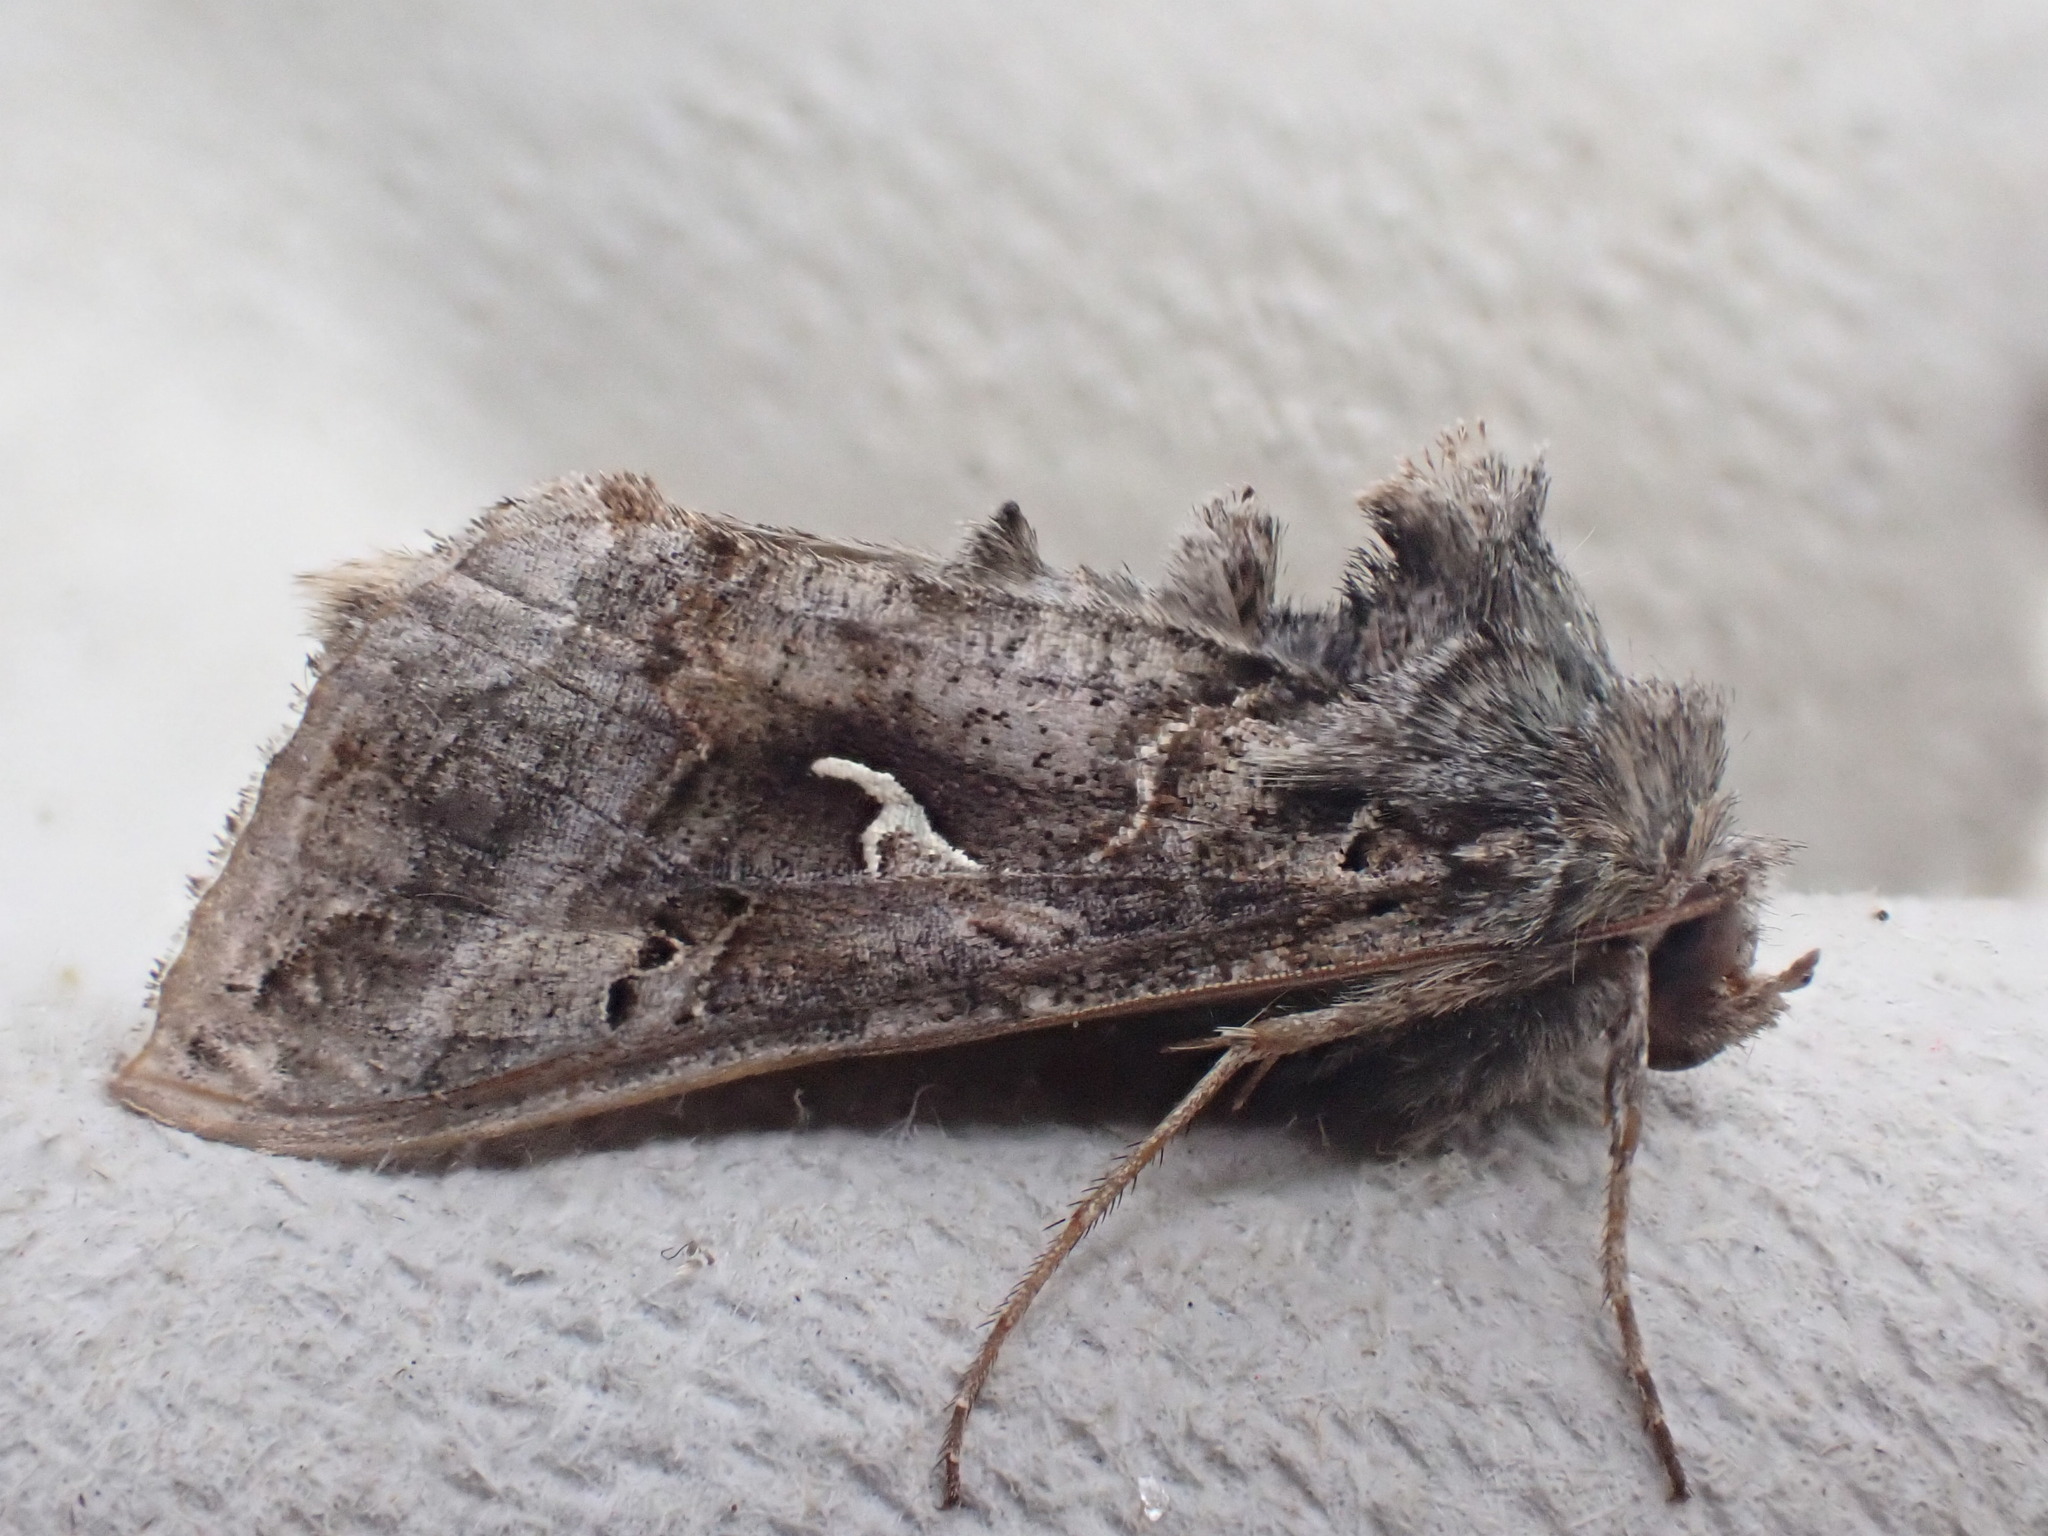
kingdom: Animalia
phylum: Arthropoda
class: Insecta
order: Lepidoptera
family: Noctuidae
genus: Autographa
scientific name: Autographa gamma
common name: Silver y
